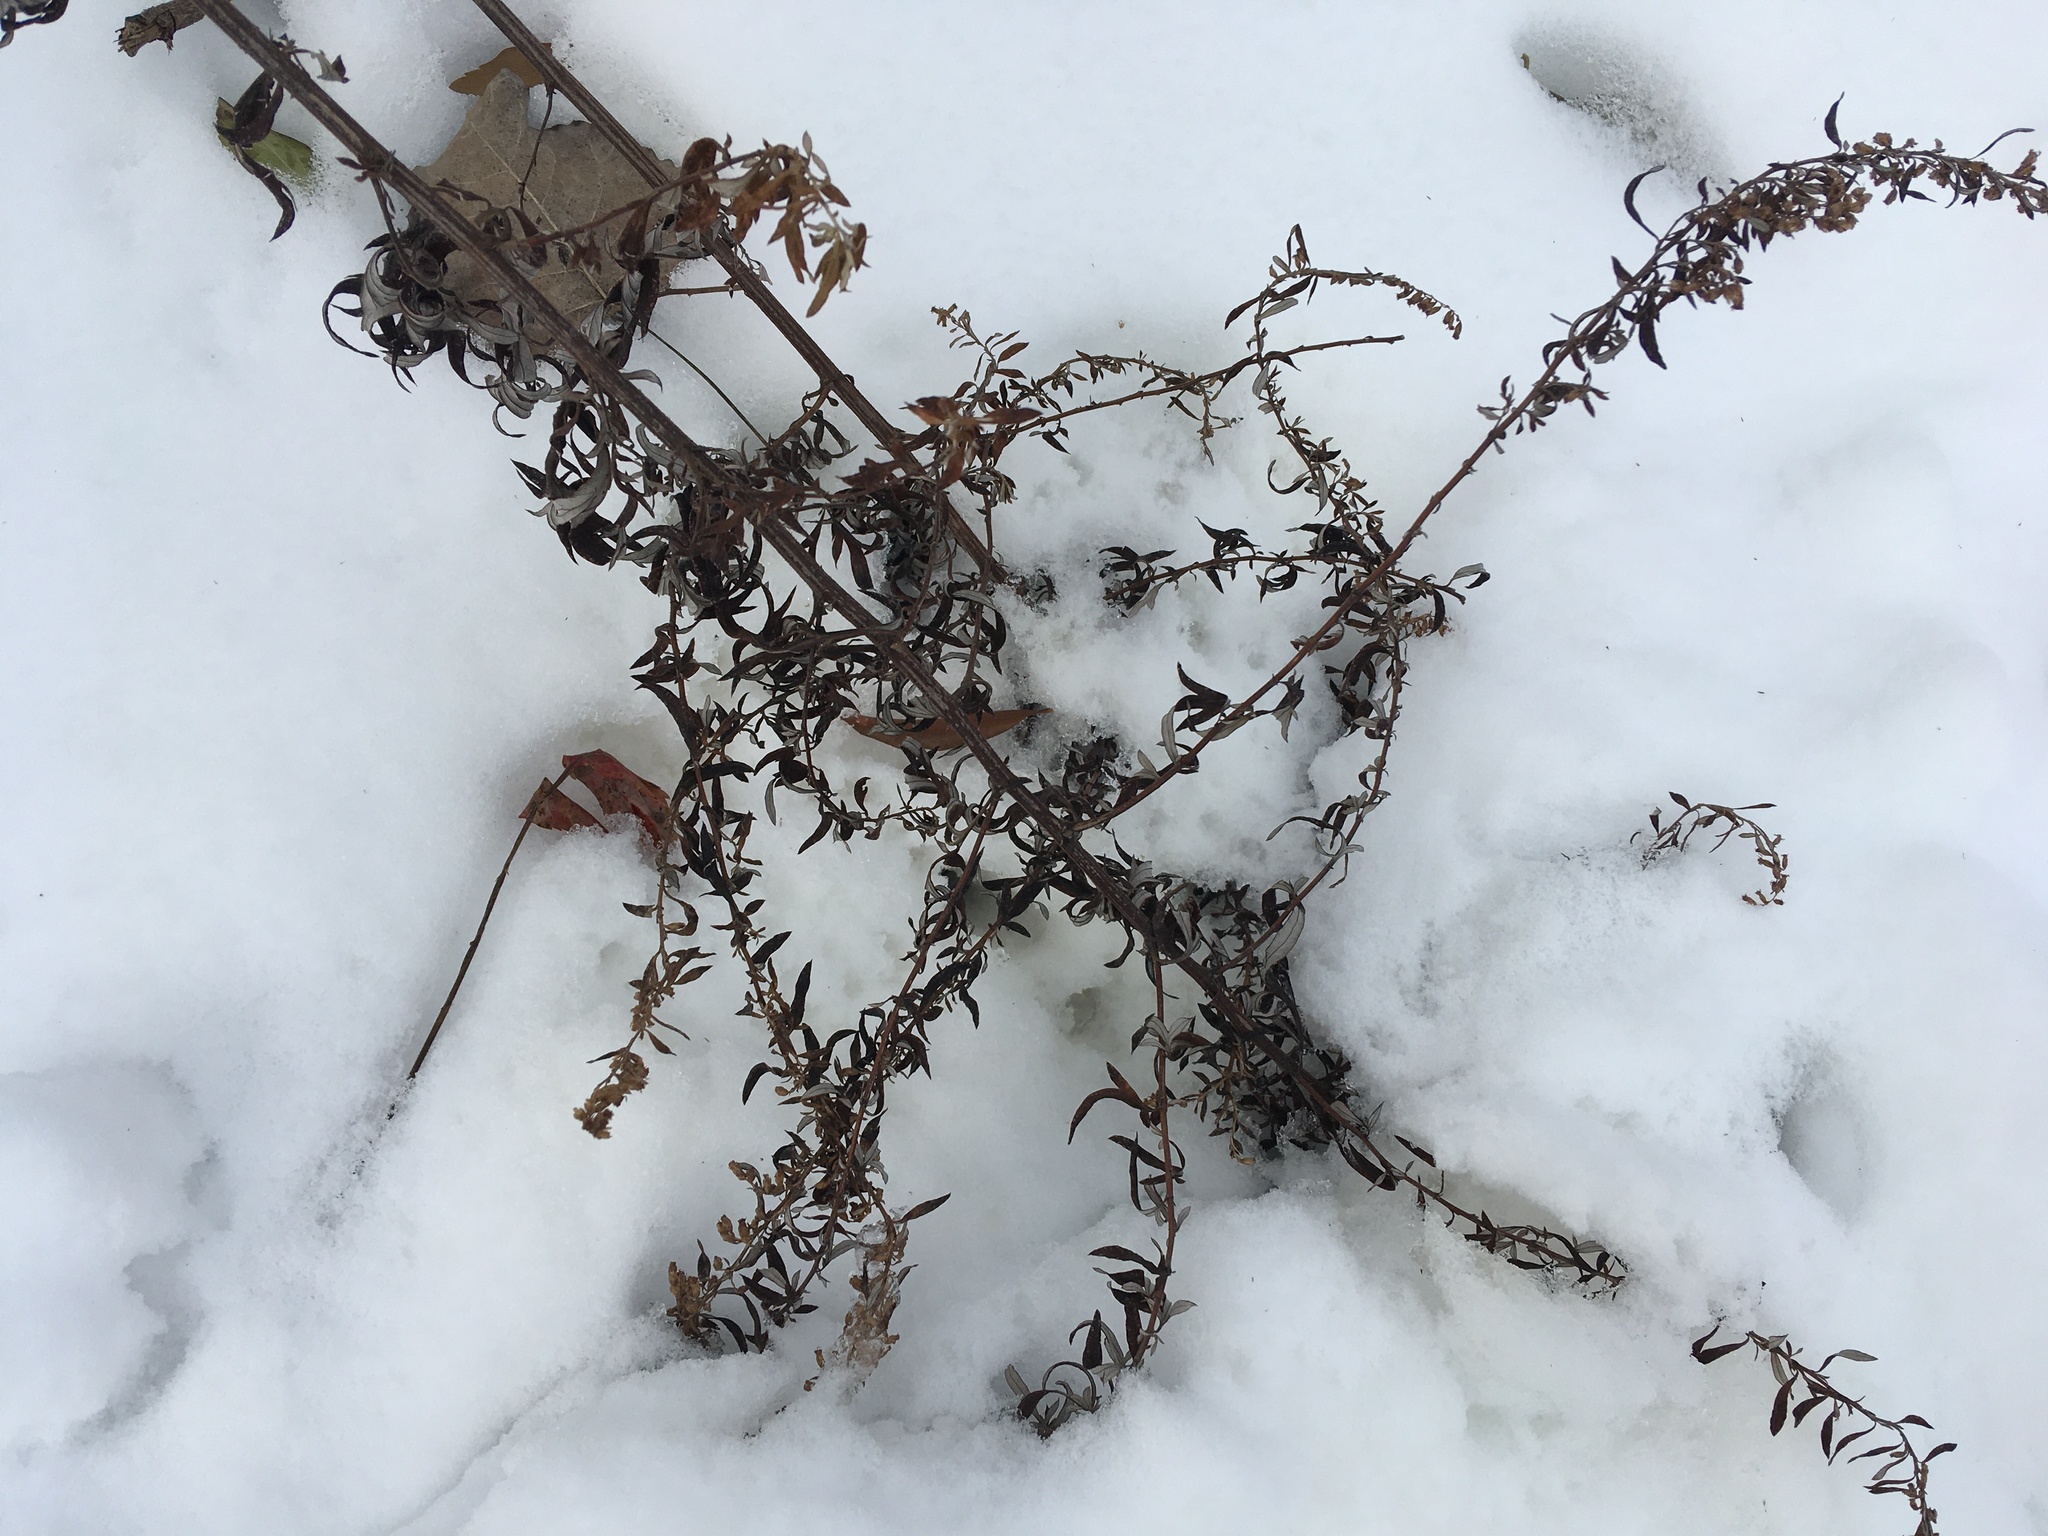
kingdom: Plantae
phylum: Tracheophyta
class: Magnoliopsida
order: Asterales
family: Asteraceae
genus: Artemisia
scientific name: Artemisia vulgaris
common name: Mugwort
